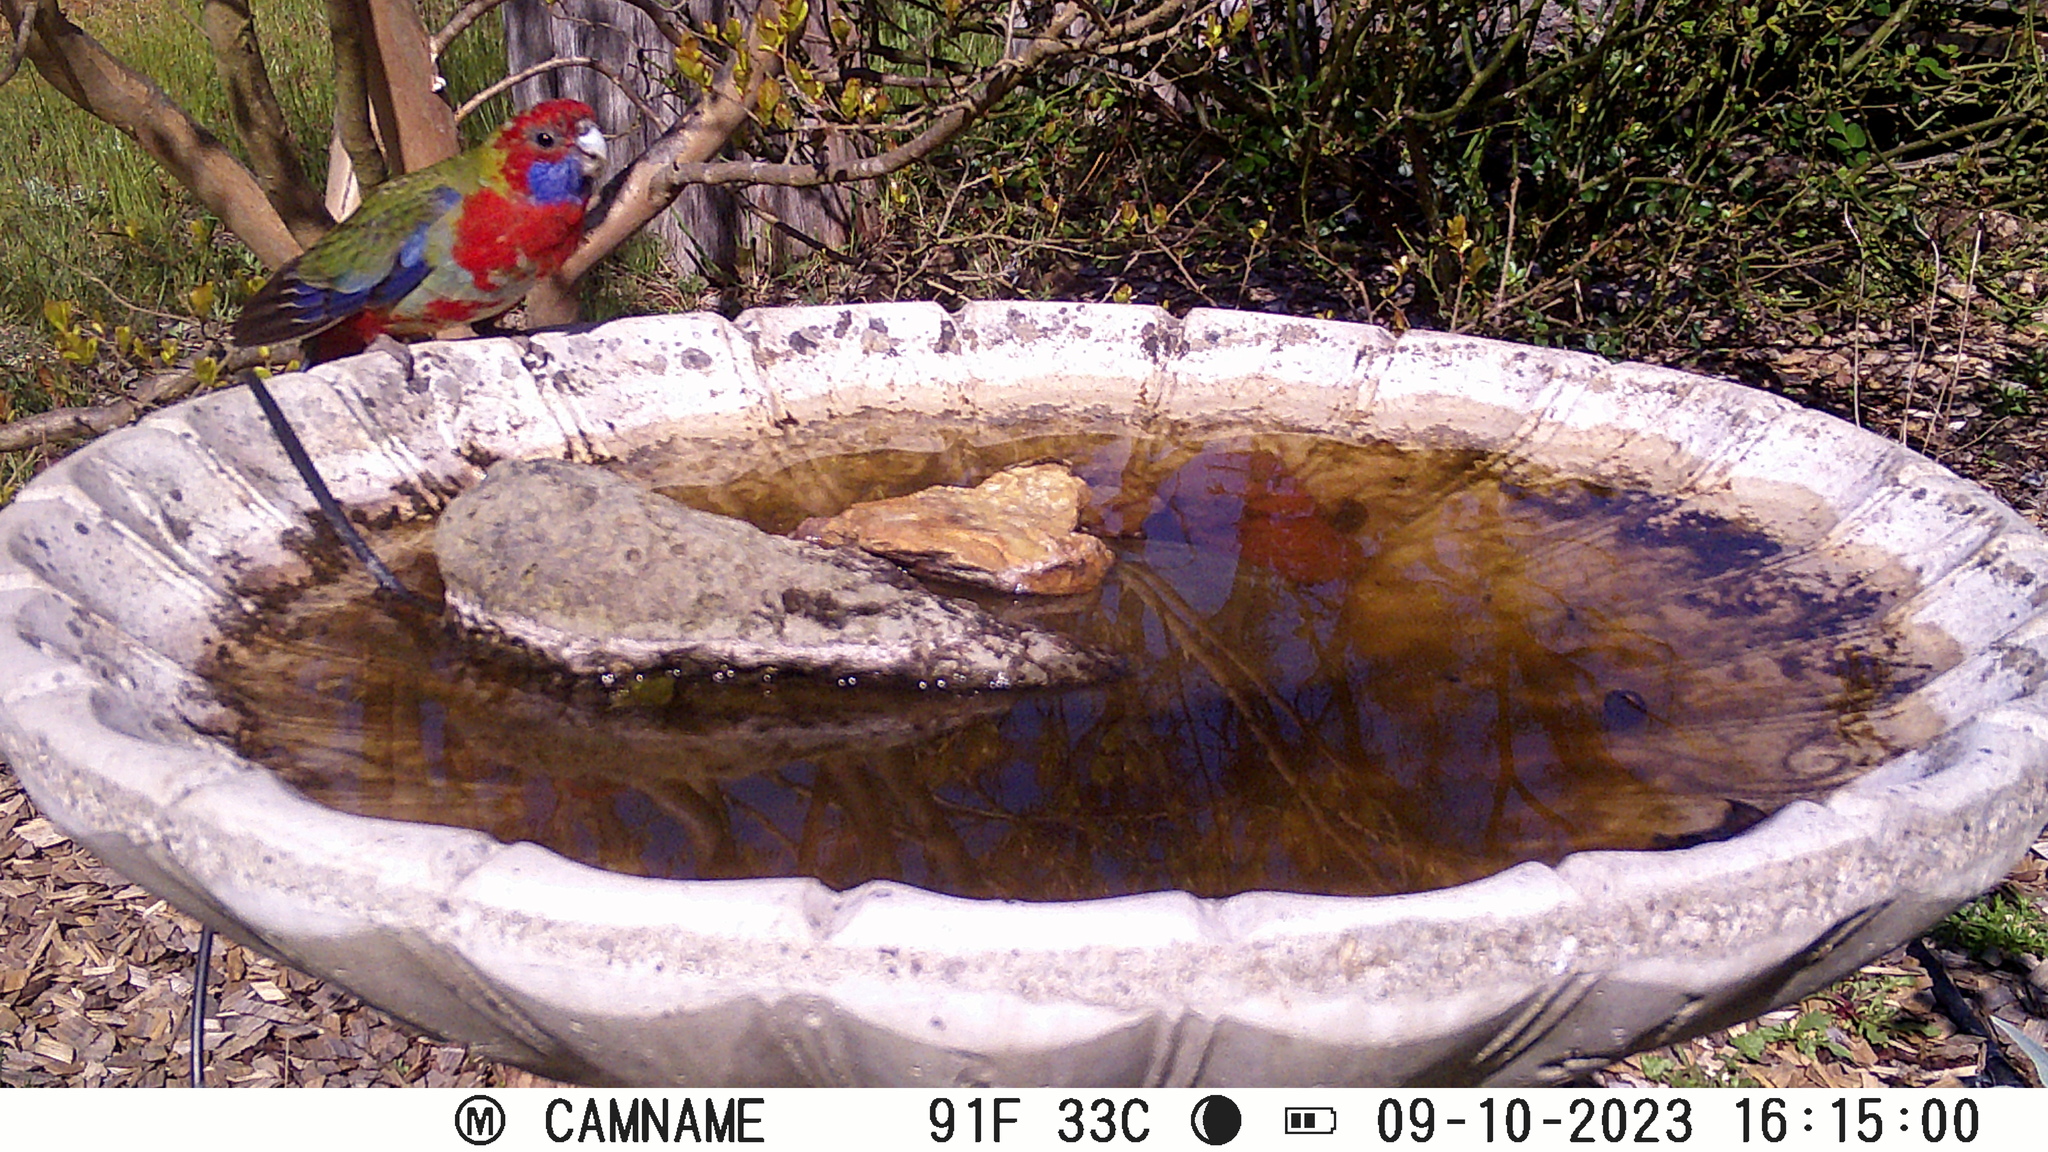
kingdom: Animalia
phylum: Chordata
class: Aves
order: Psittaciformes
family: Psittacidae
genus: Platycercus
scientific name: Platycercus elegans
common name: Crimson rosella
